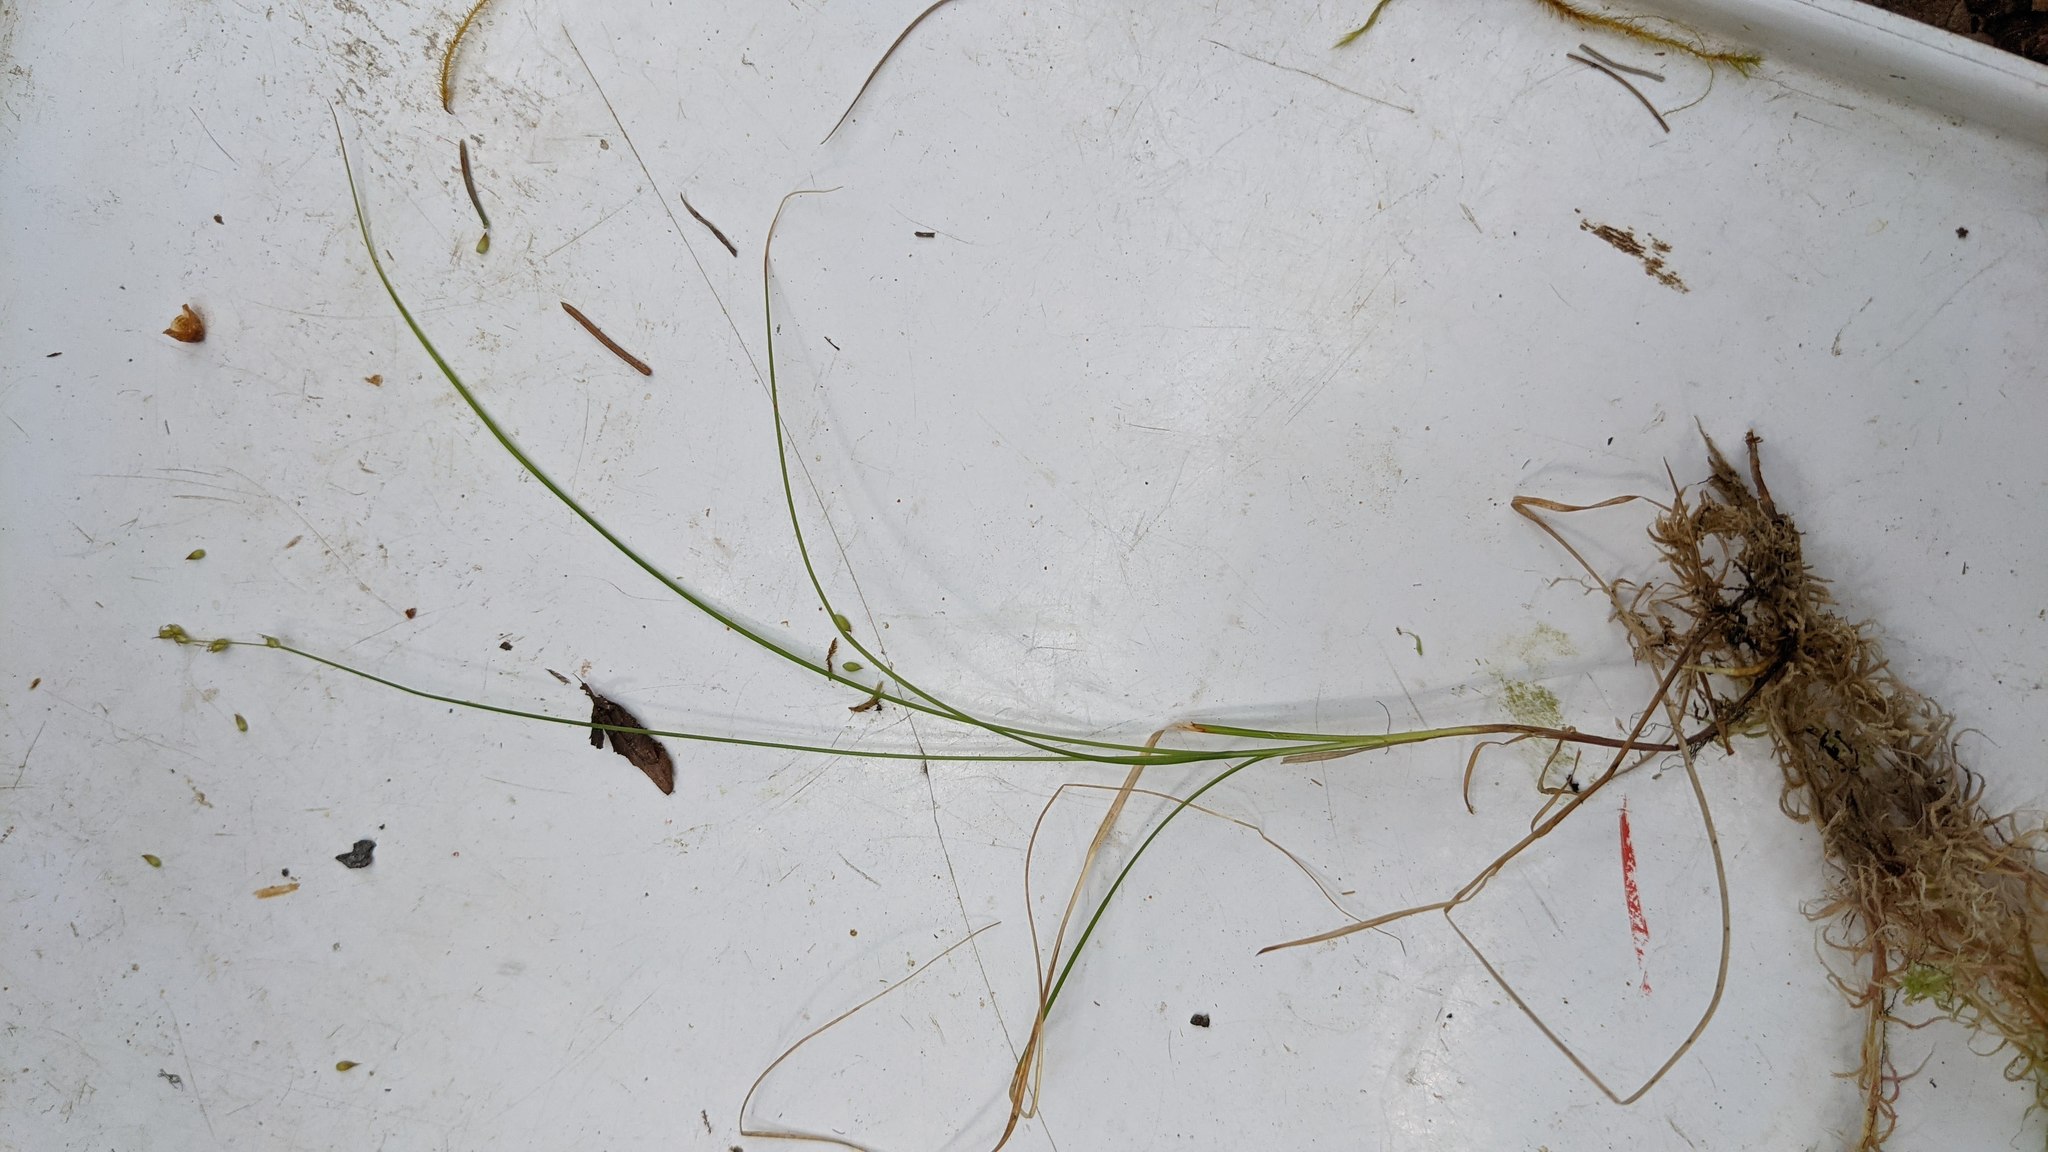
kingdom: Plantae
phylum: Tracheophyta
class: Liliopsida
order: Poales
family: Cyperaceae
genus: Carex
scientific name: Carex disperma
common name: Short-leaved sedge
